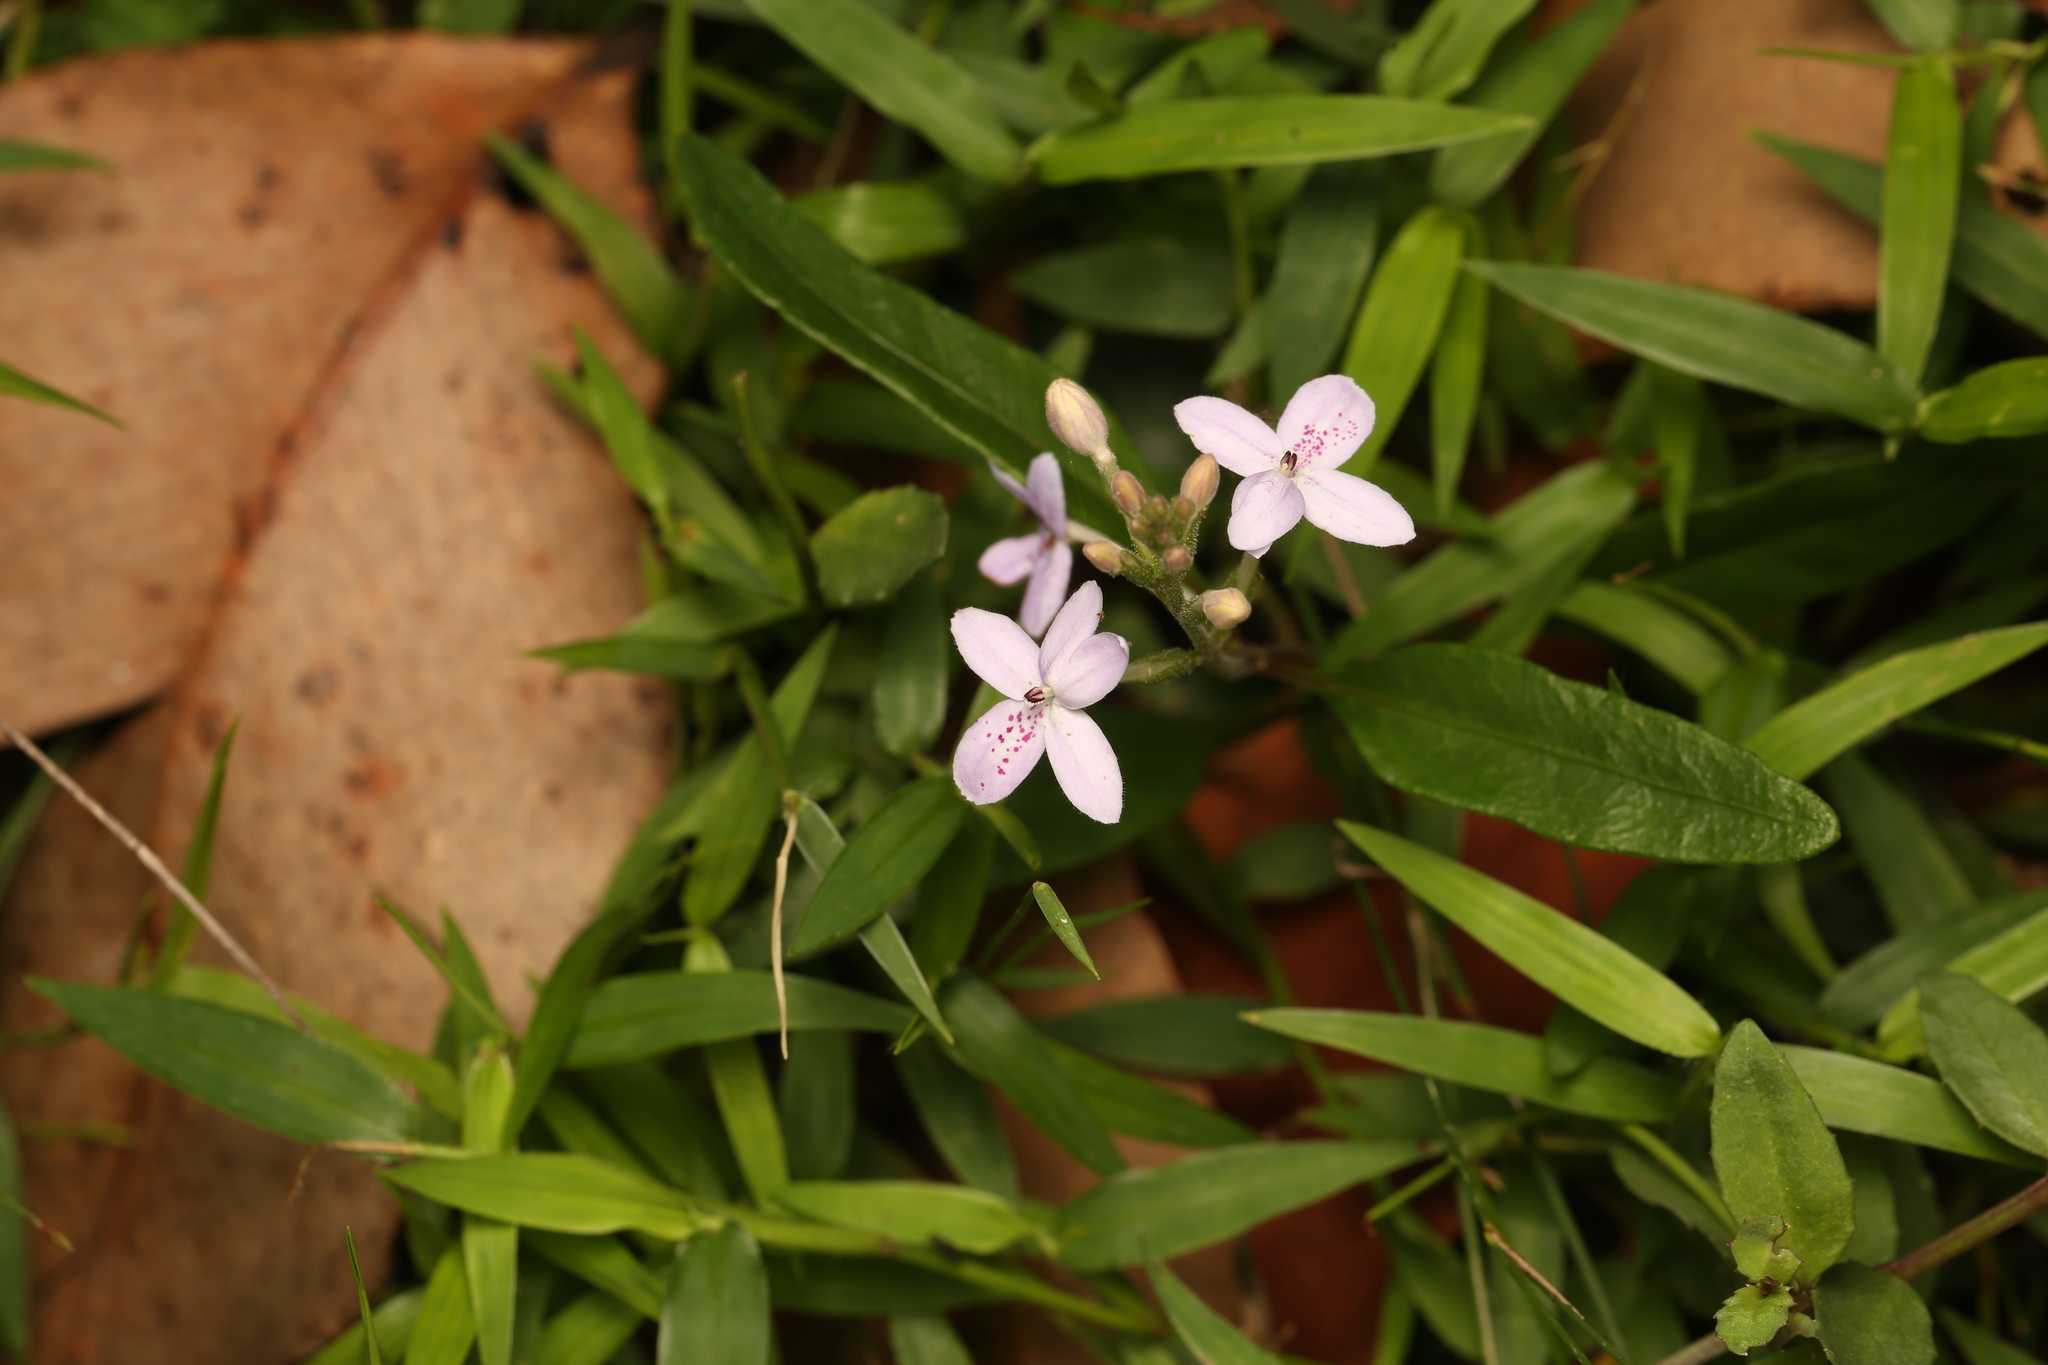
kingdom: Plantae
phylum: Tracheophyta
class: Magnoliopsida
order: Lamiales
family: Acanthaceae
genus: Pseuderanthemum
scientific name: Pseuderanthemum variabile
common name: Night and afternoon
